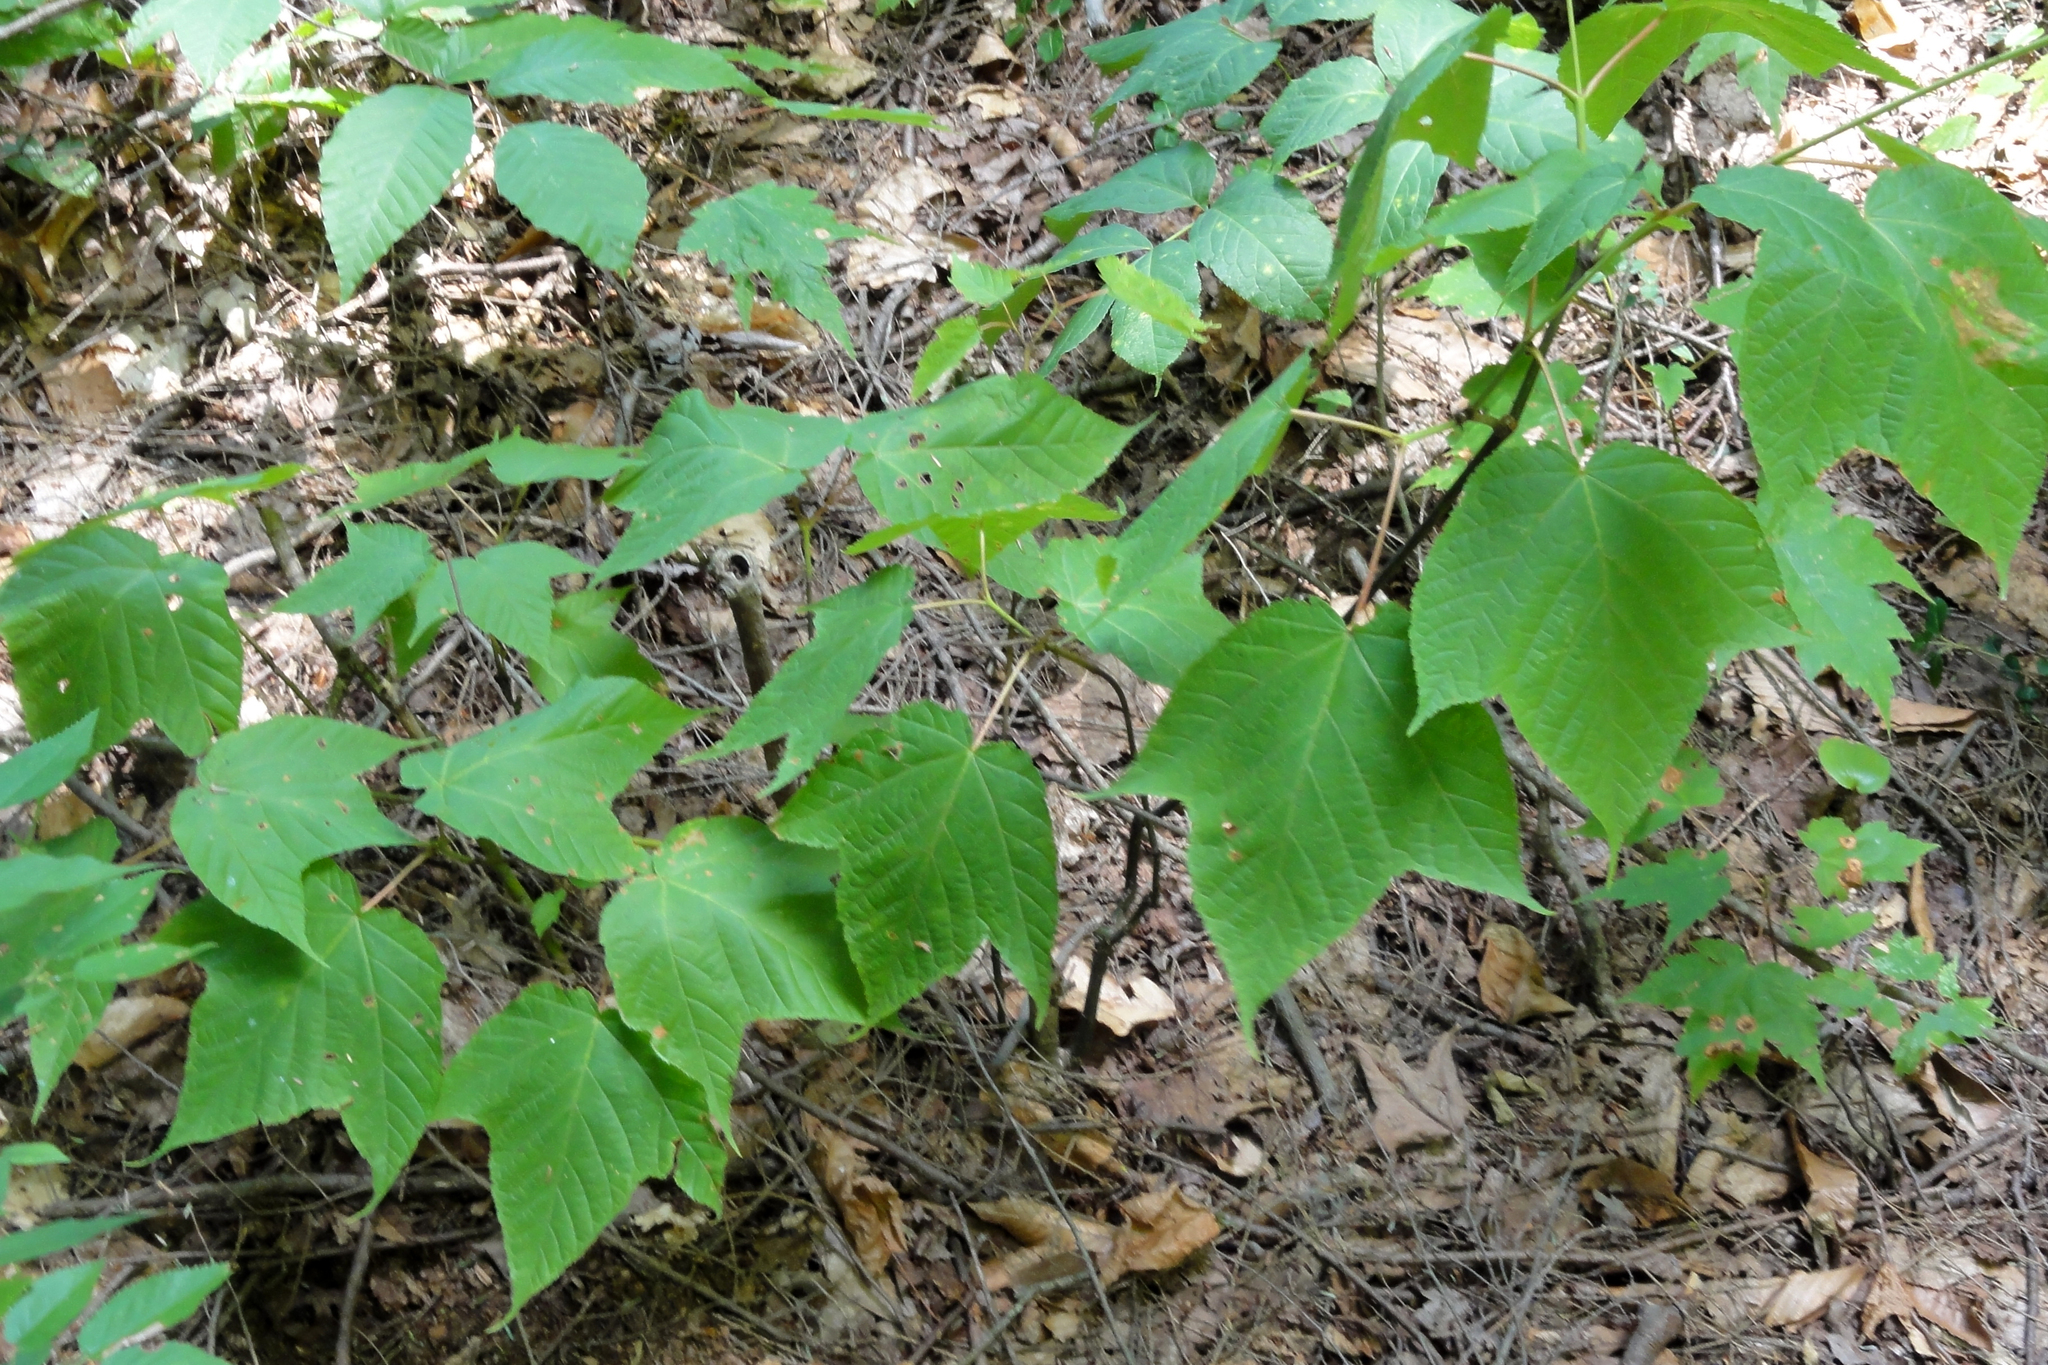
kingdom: Plantae
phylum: Tracheophyta
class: Magnoliopsida
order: Sapindales
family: Sapindaceae
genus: Acer
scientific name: Acer pensylvanicum
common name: Moosewood
